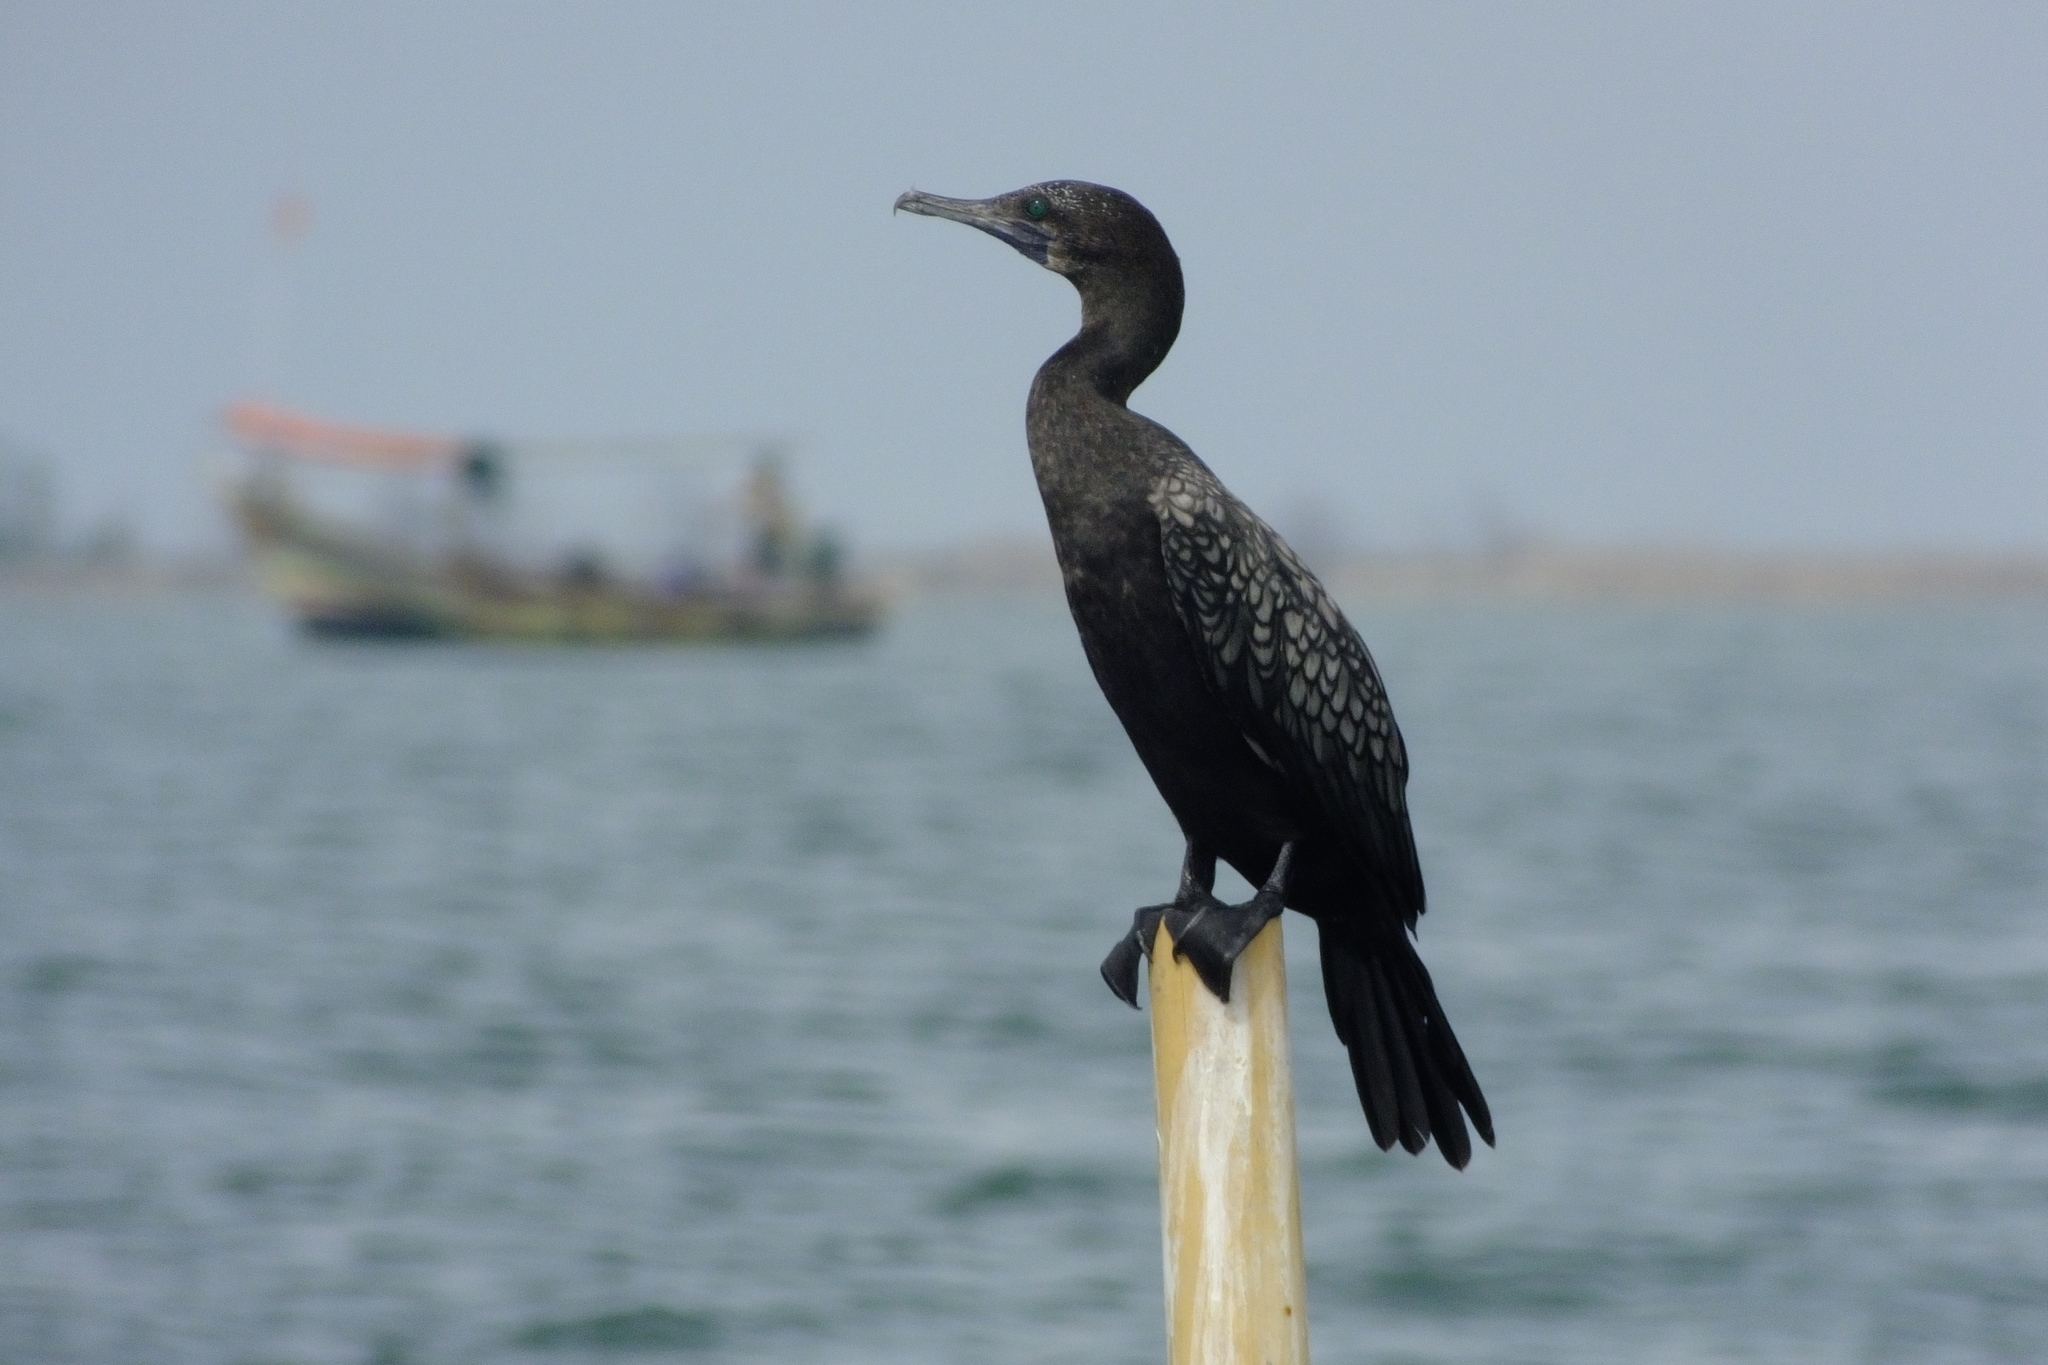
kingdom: Animalia
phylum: Chordata
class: Aves
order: Suliformes
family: Phalacrocoracidae
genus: Phalacrocorax
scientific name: Phalacrocorax sulcirostris
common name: Little black cormorant
